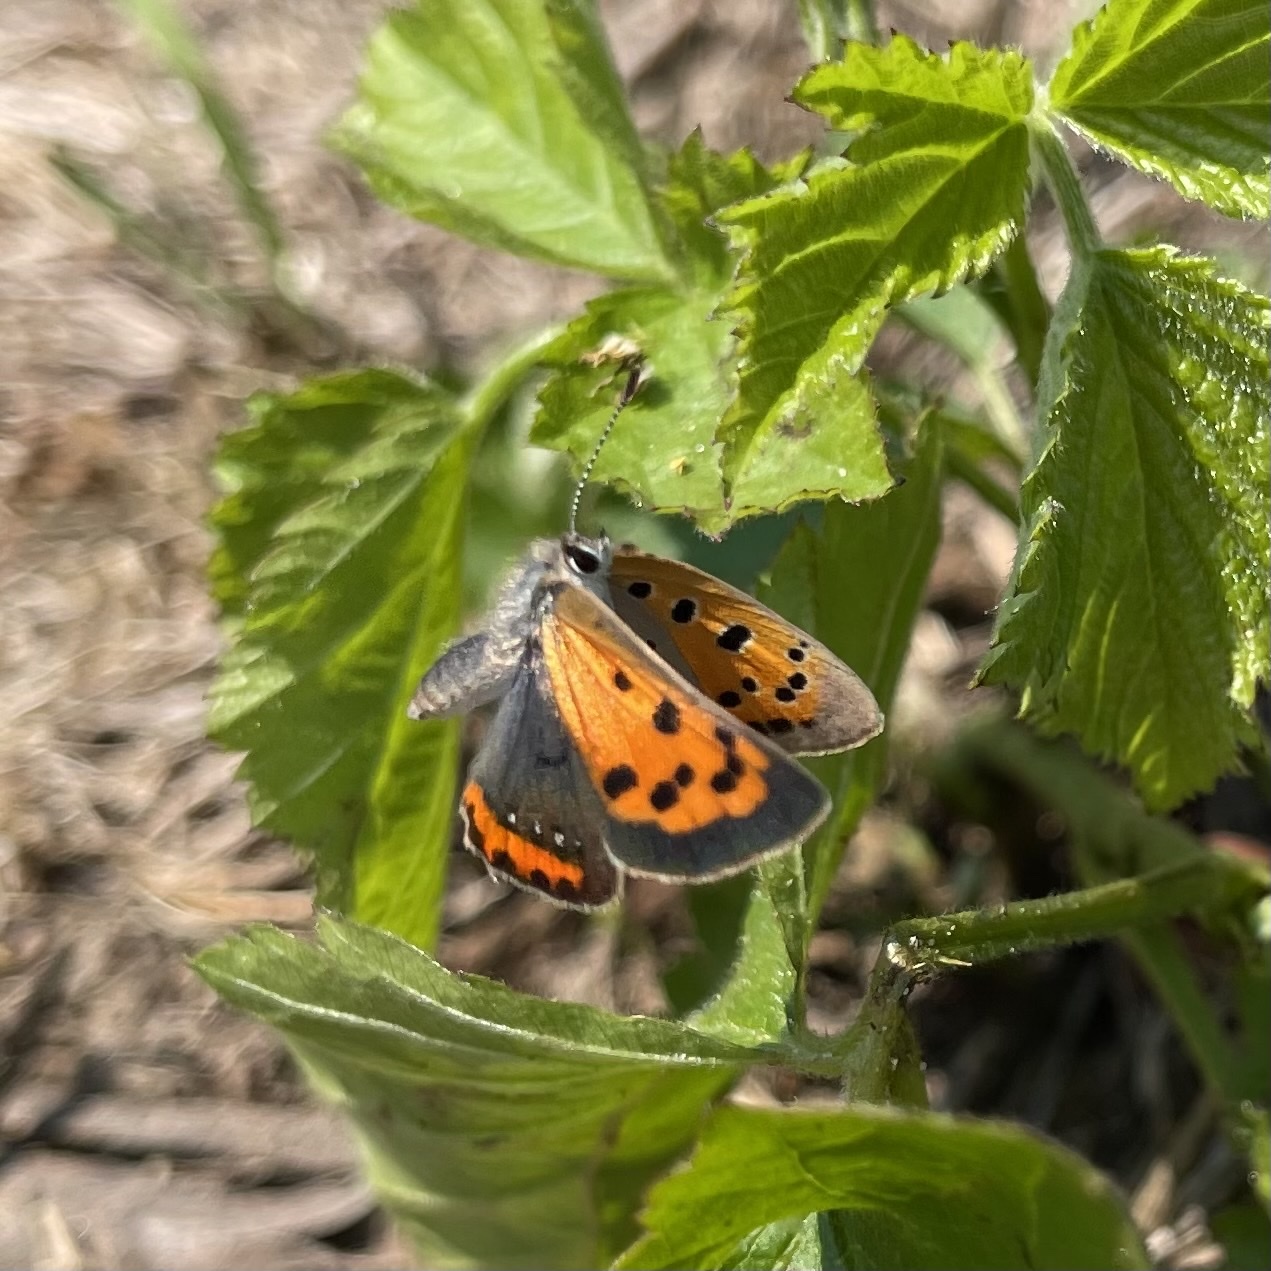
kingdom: Animalia
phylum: Arthropoda
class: Insecta
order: Lepidoptera
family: Lycaenidae
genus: Lycaena
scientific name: Lycaena hypophlaeas
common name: American copper
